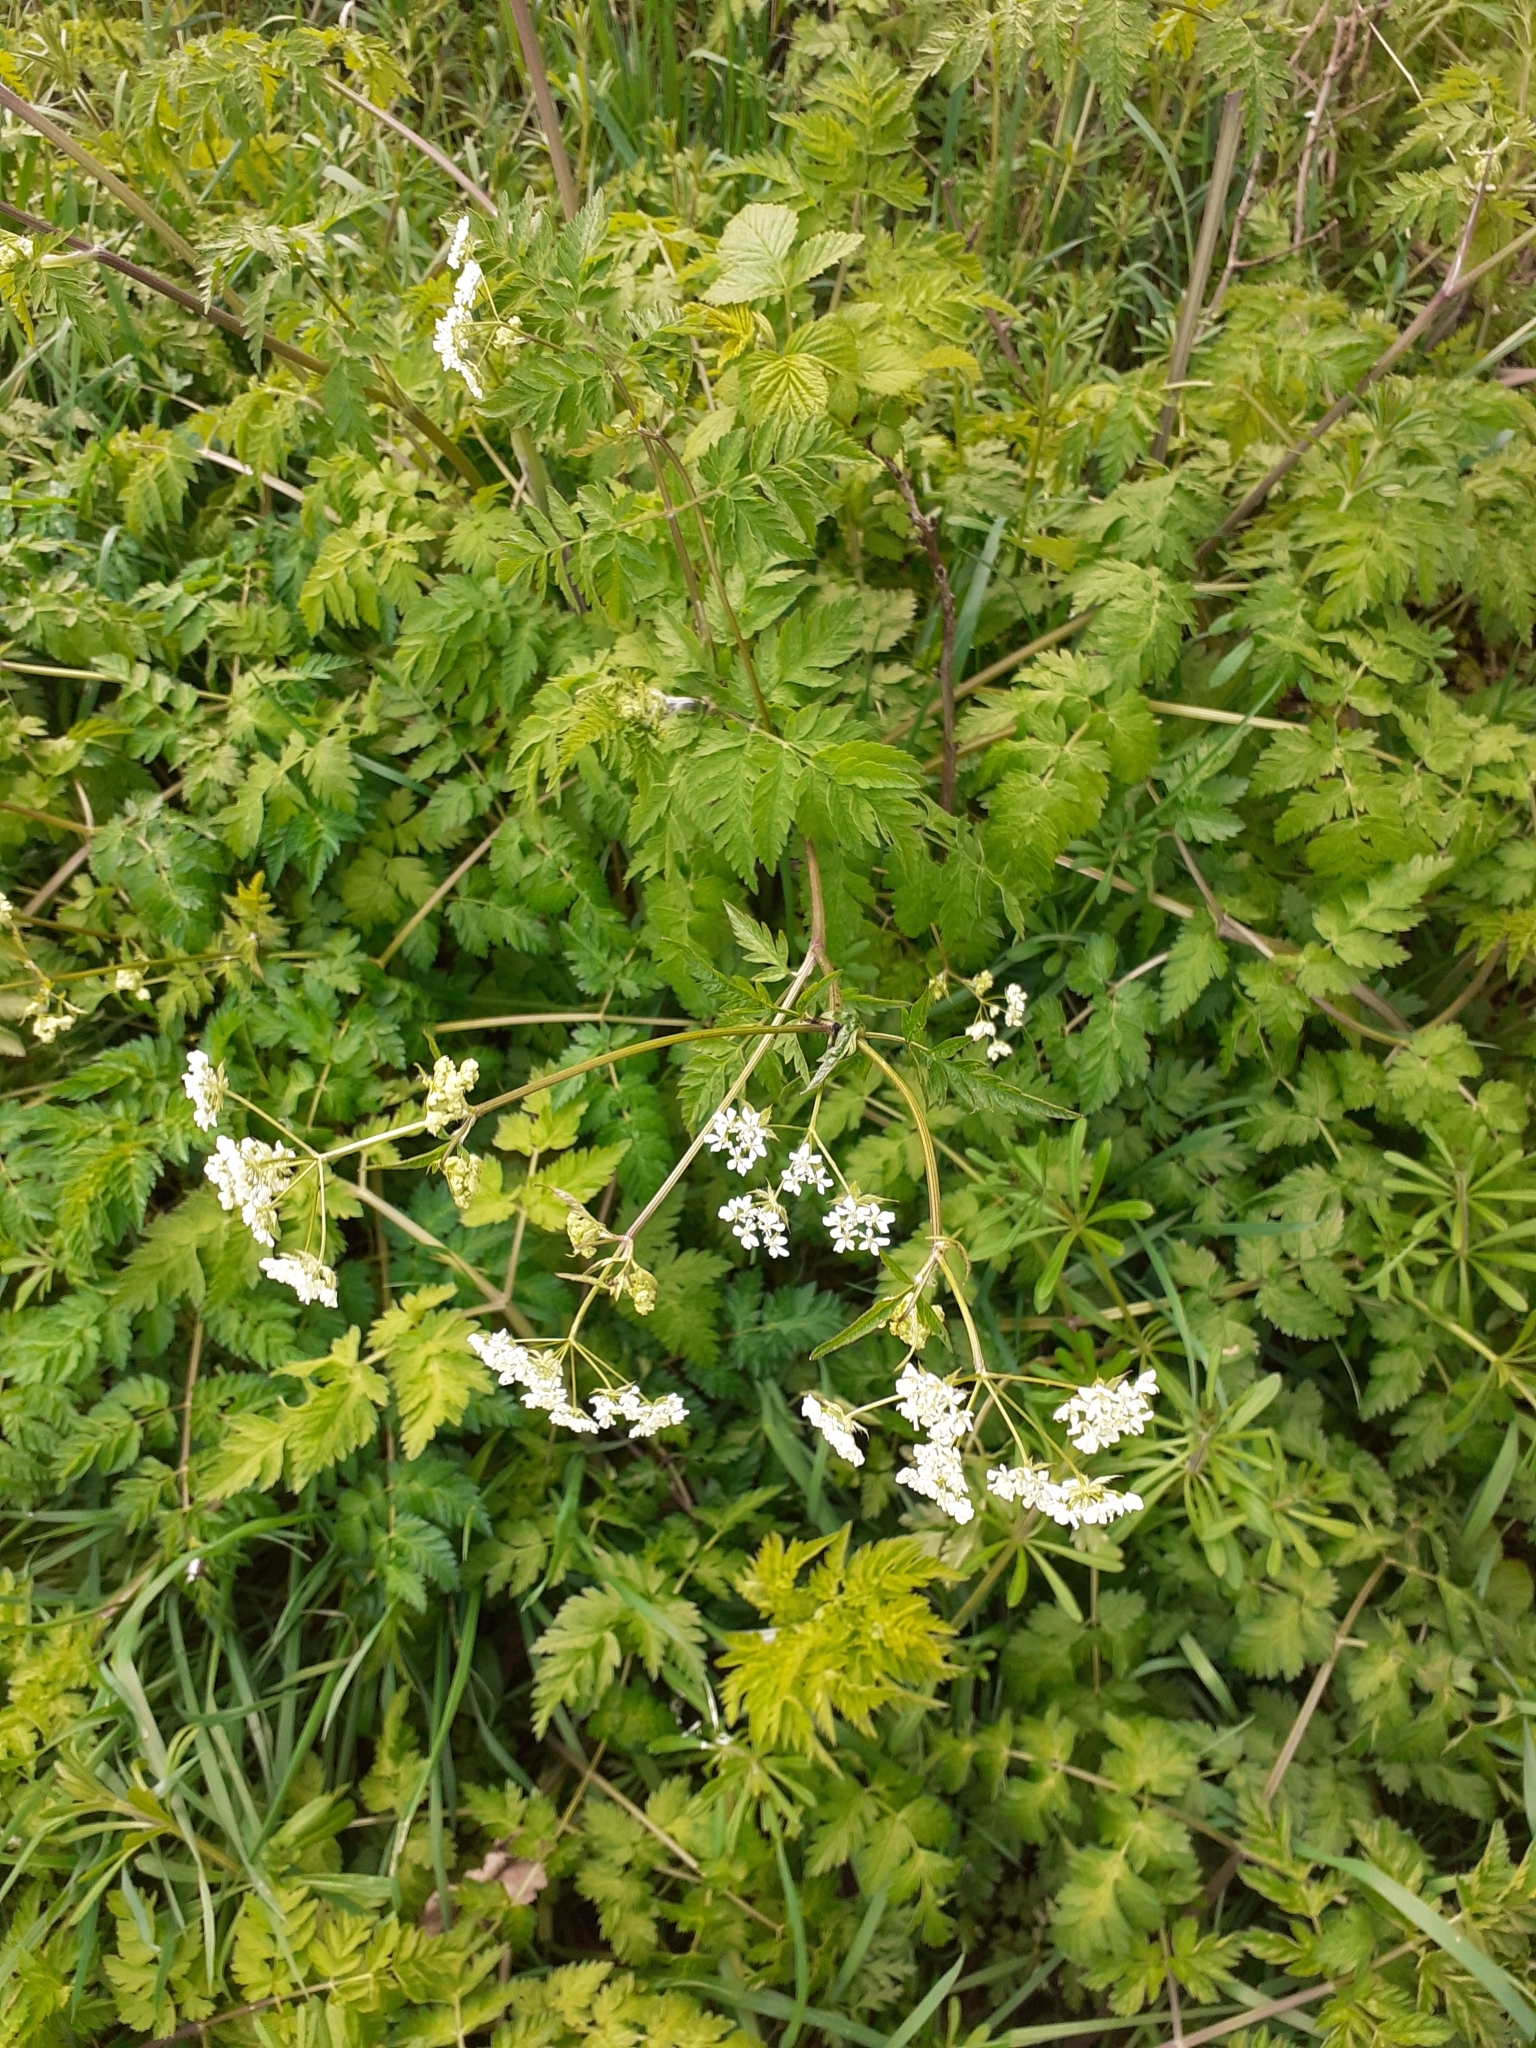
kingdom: Plantae
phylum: Tracheophyta
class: Magnoliopsida
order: Apiales
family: Apiaceae
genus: Anthriscus
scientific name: Anthriscus sylvestris
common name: Cow parsley
